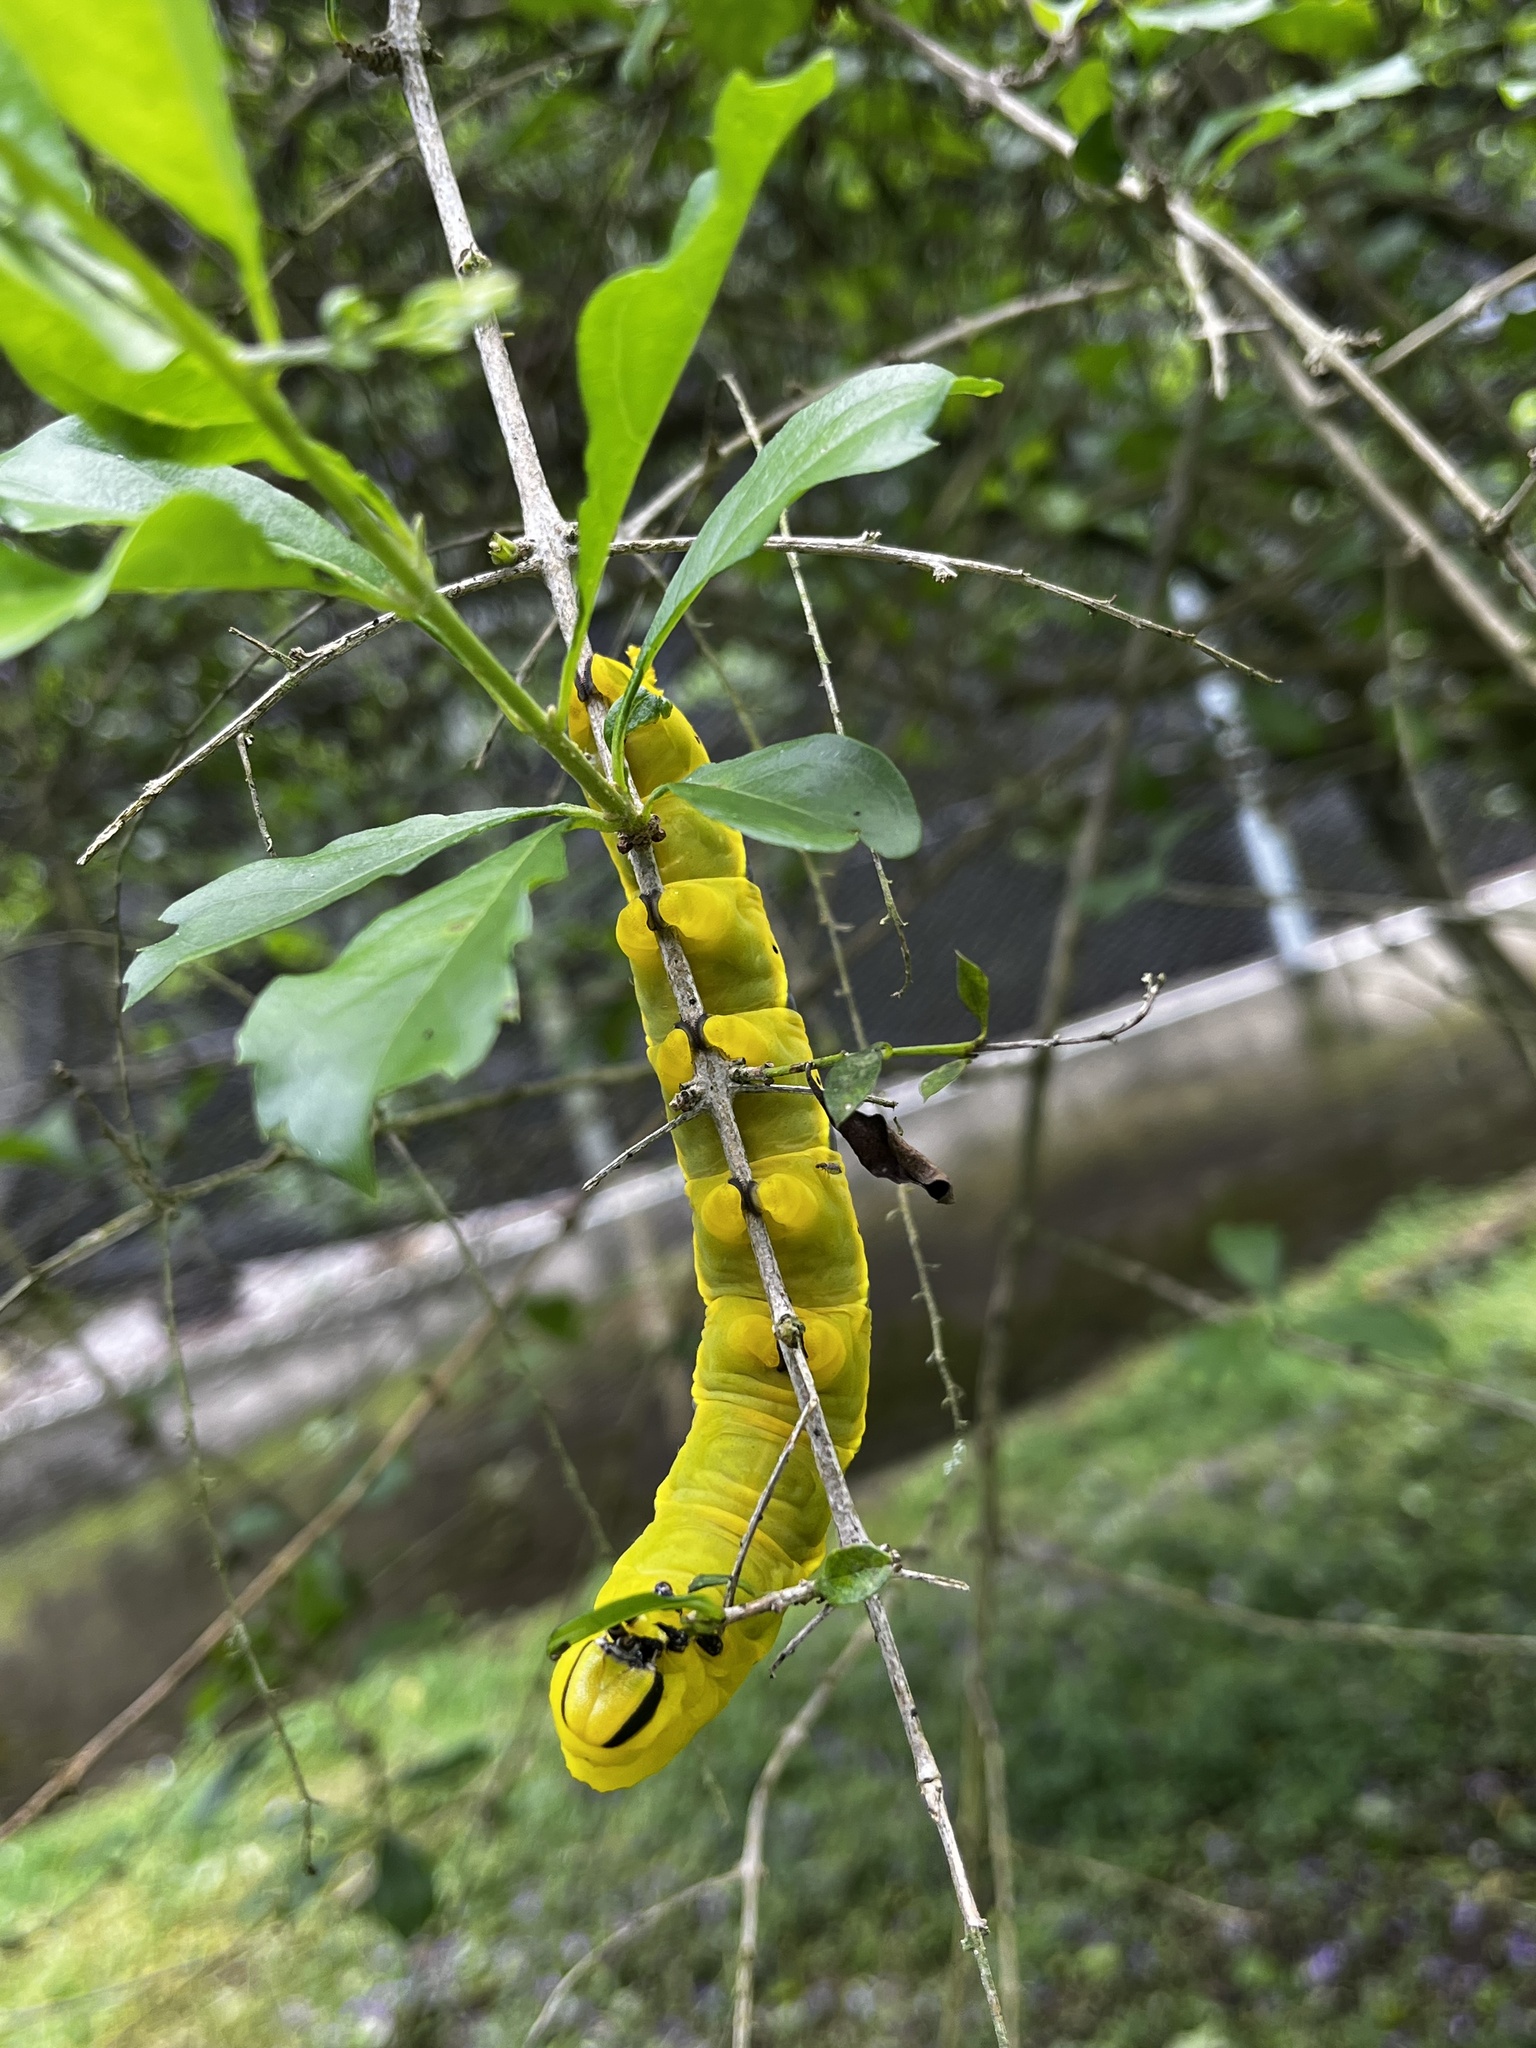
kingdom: Animalia
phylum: Arthropoda
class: Insecta
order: Lepidoptera
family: Sphingidae
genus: Acherontia
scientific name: Acherontia lachesis
